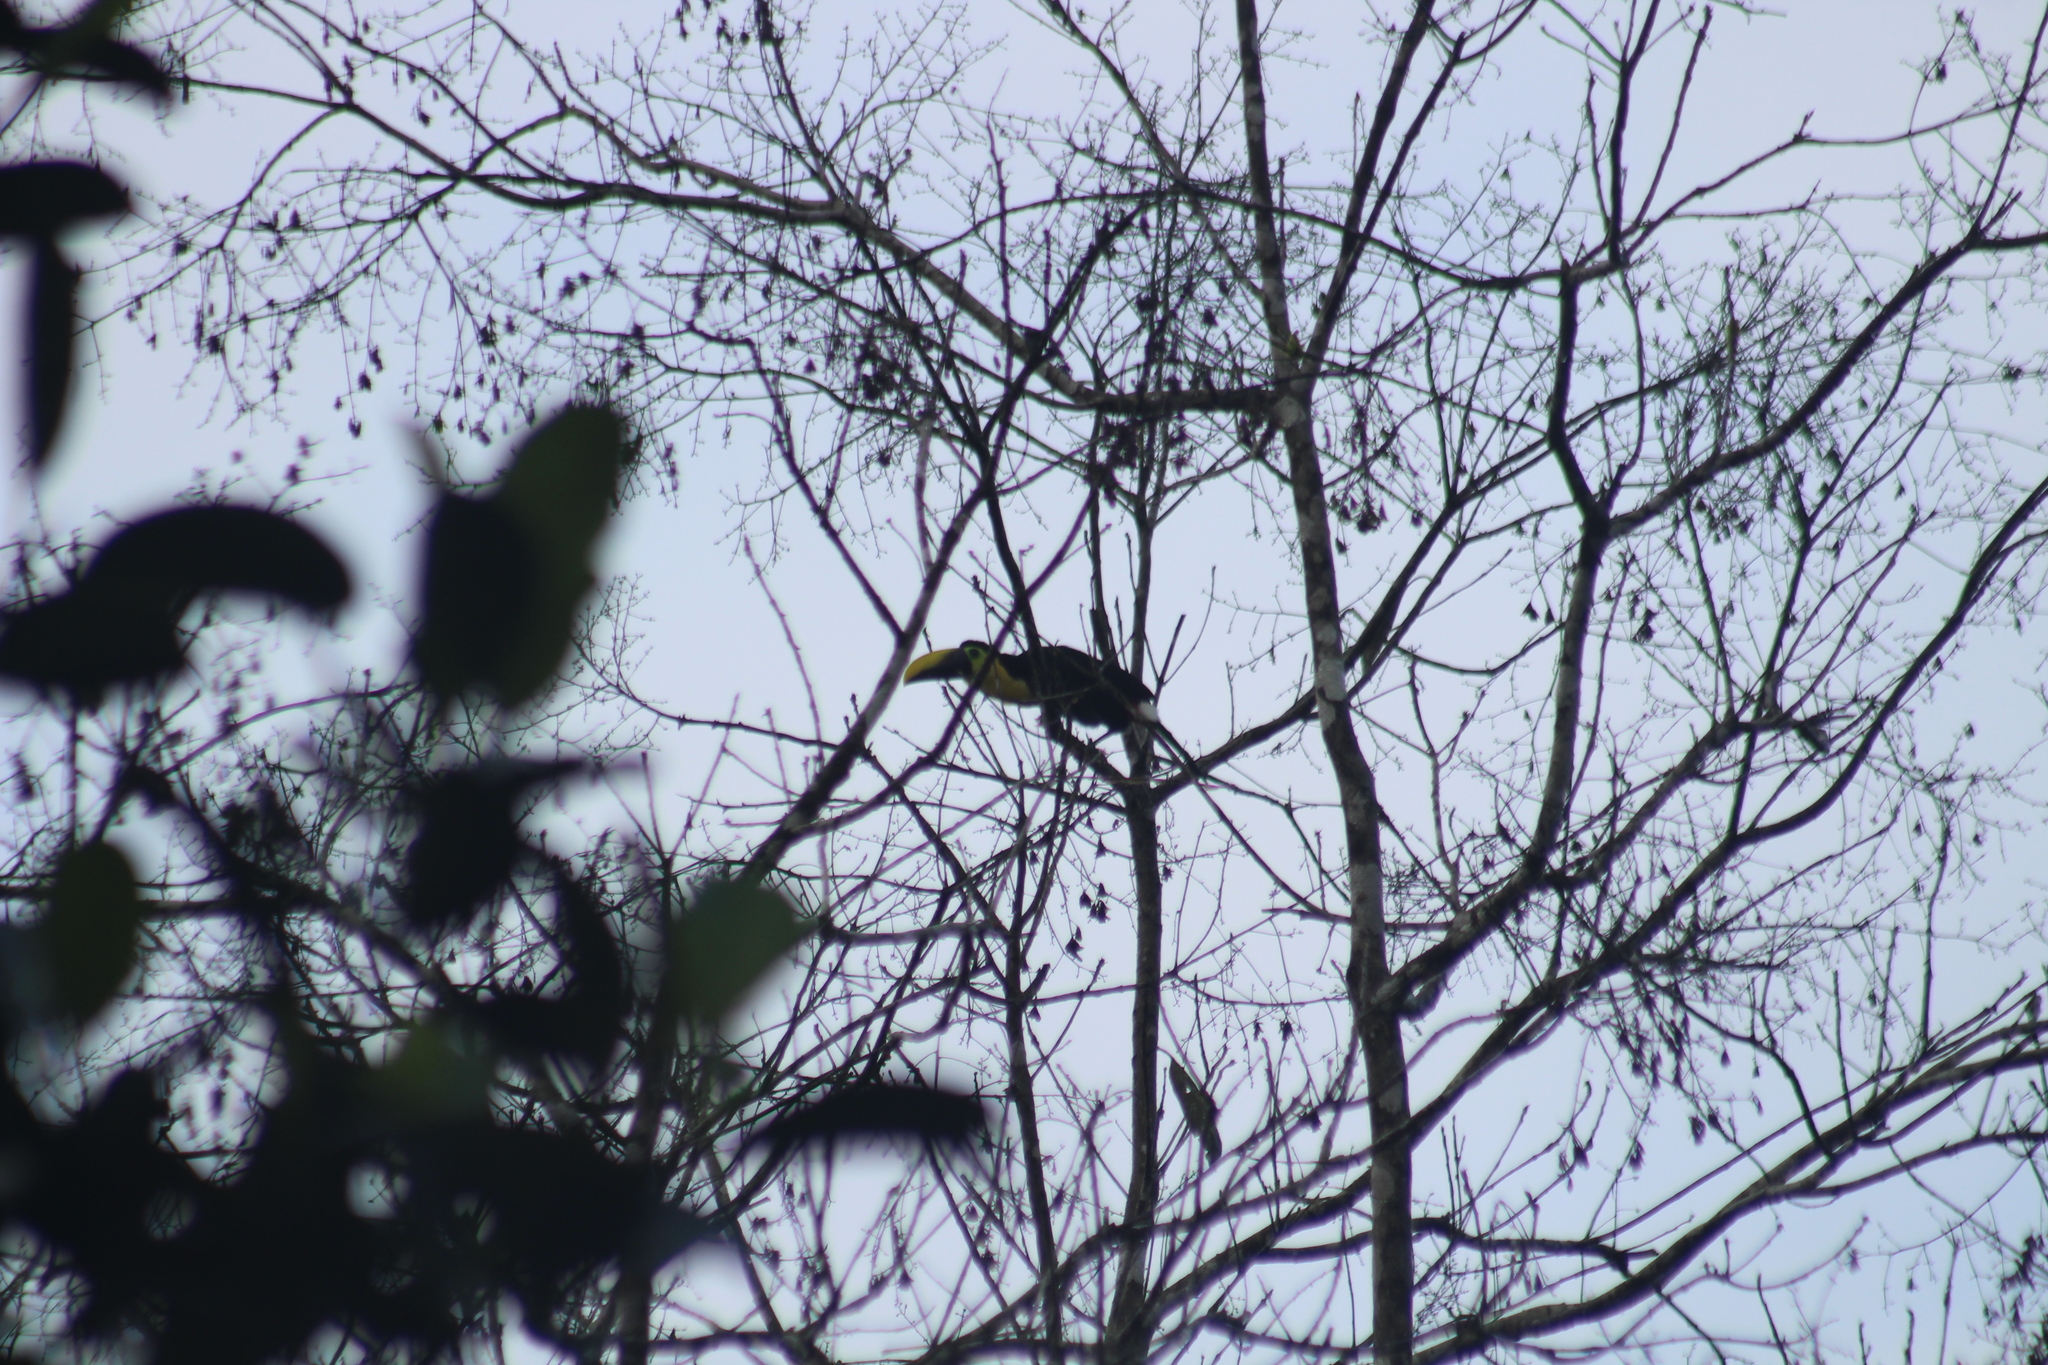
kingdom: Animalia
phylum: Chordata
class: Aves
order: Piciformes
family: Ramphastidae
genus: Ramphastos
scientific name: Ramphastos ambiguus
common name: Yellow-throated toucan
